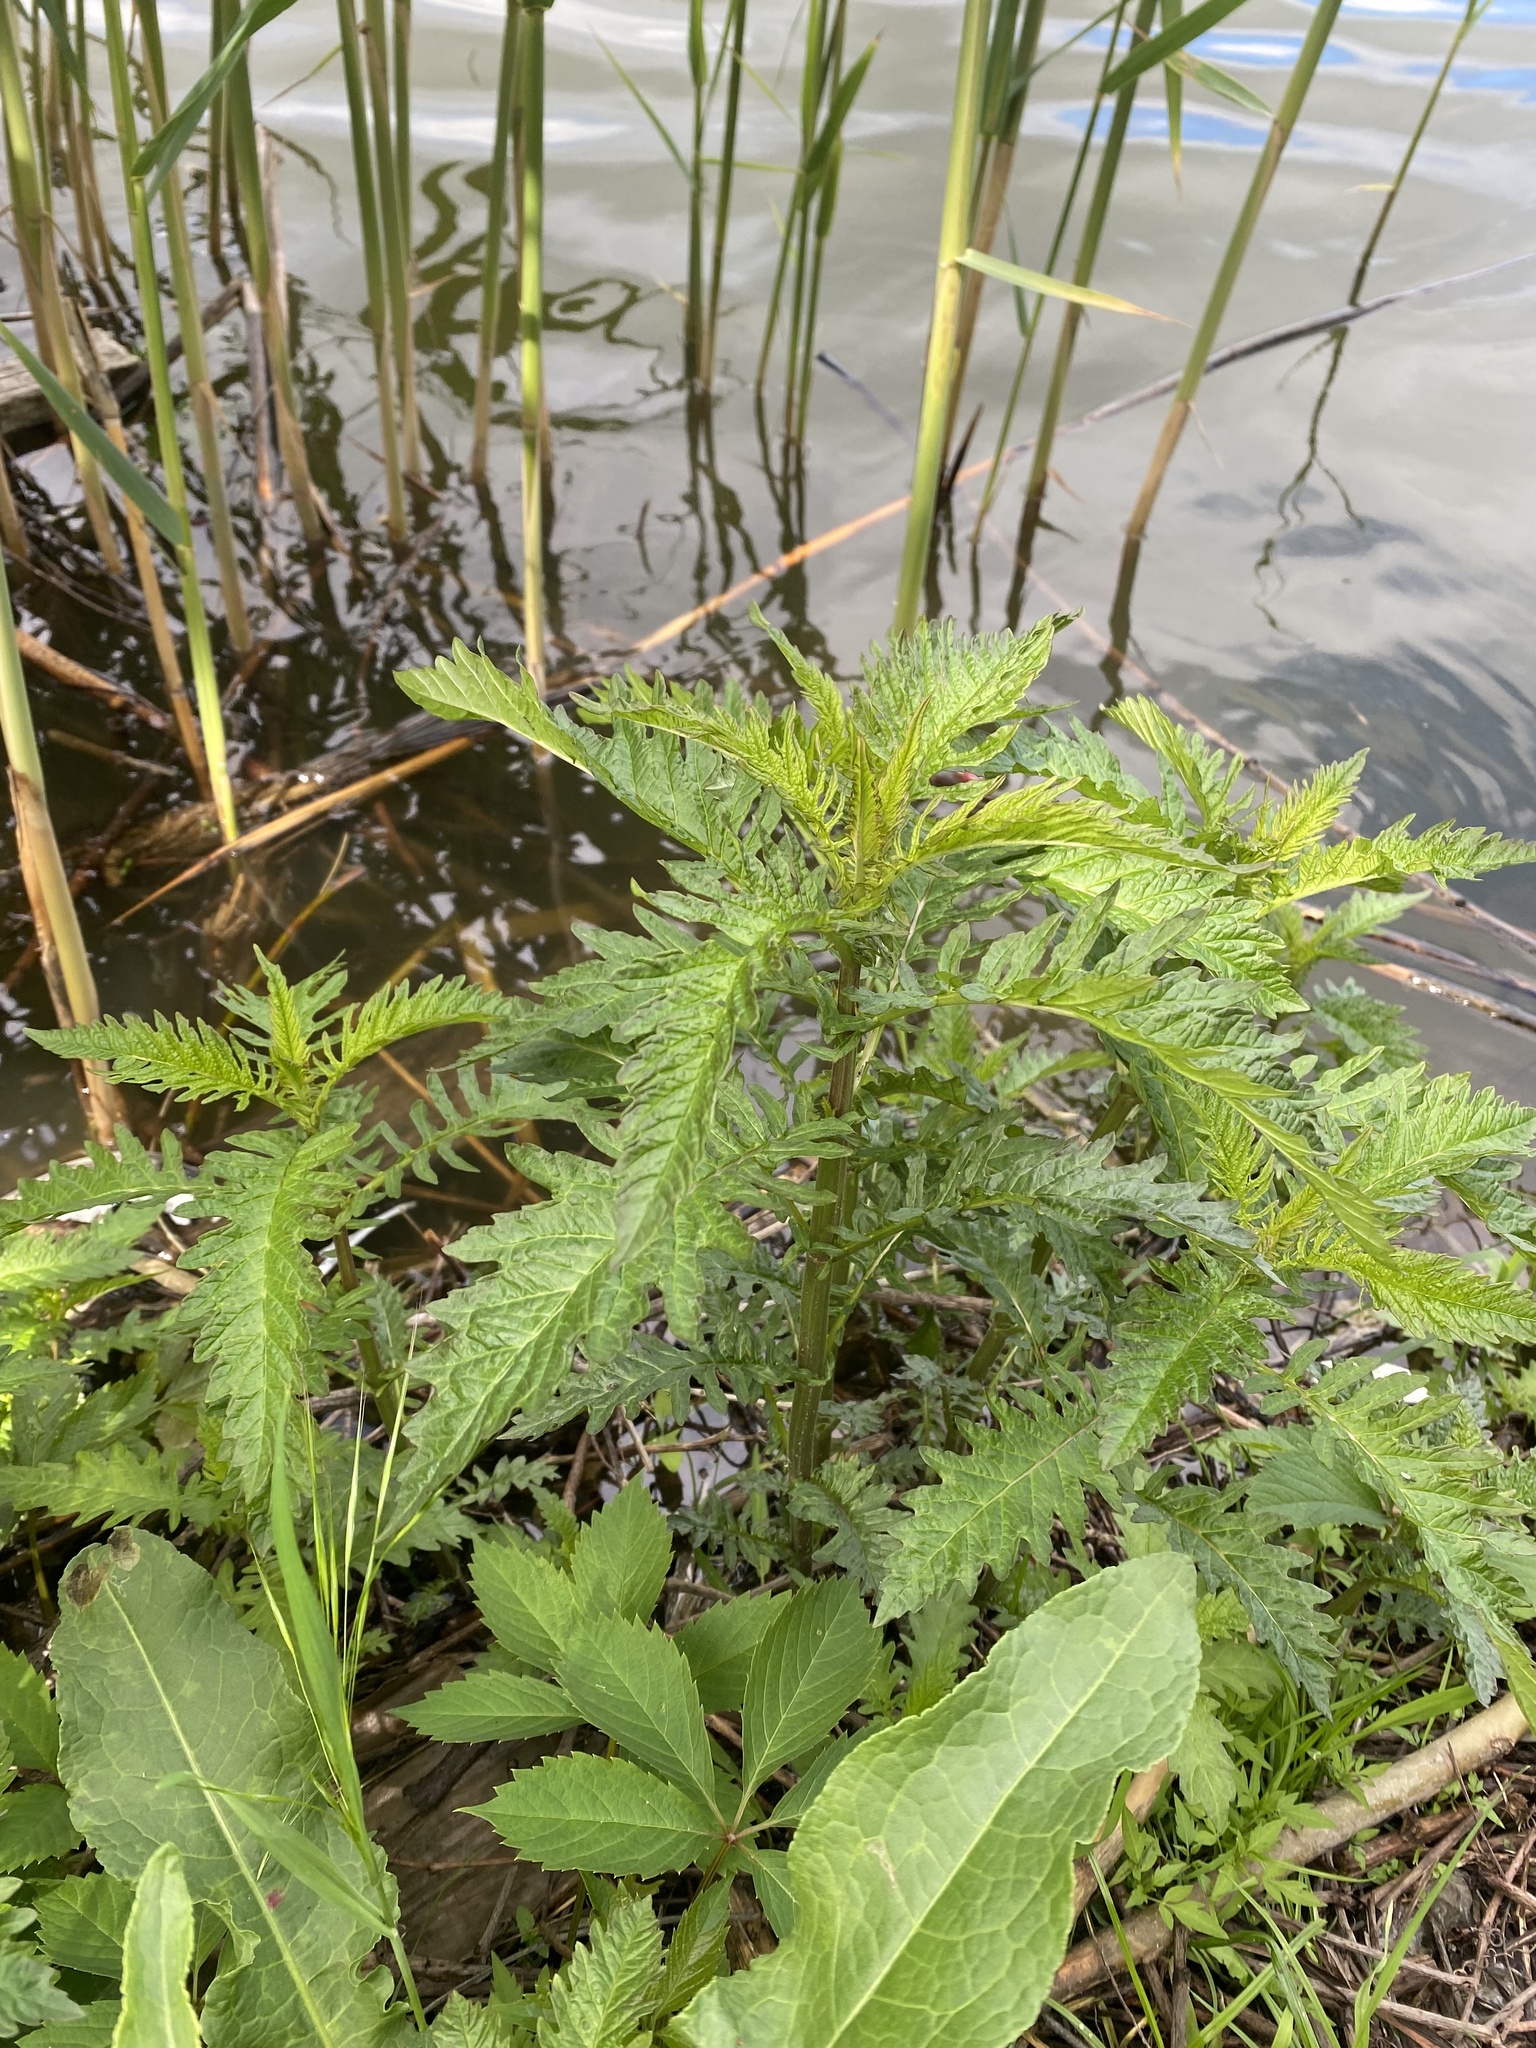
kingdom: Plantae
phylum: Tracheophyta
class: Magnoliopsida
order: Lamiales
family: Lamiaceae
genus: Lycopus
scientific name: Lycopus europaeus
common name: European bugleweed
